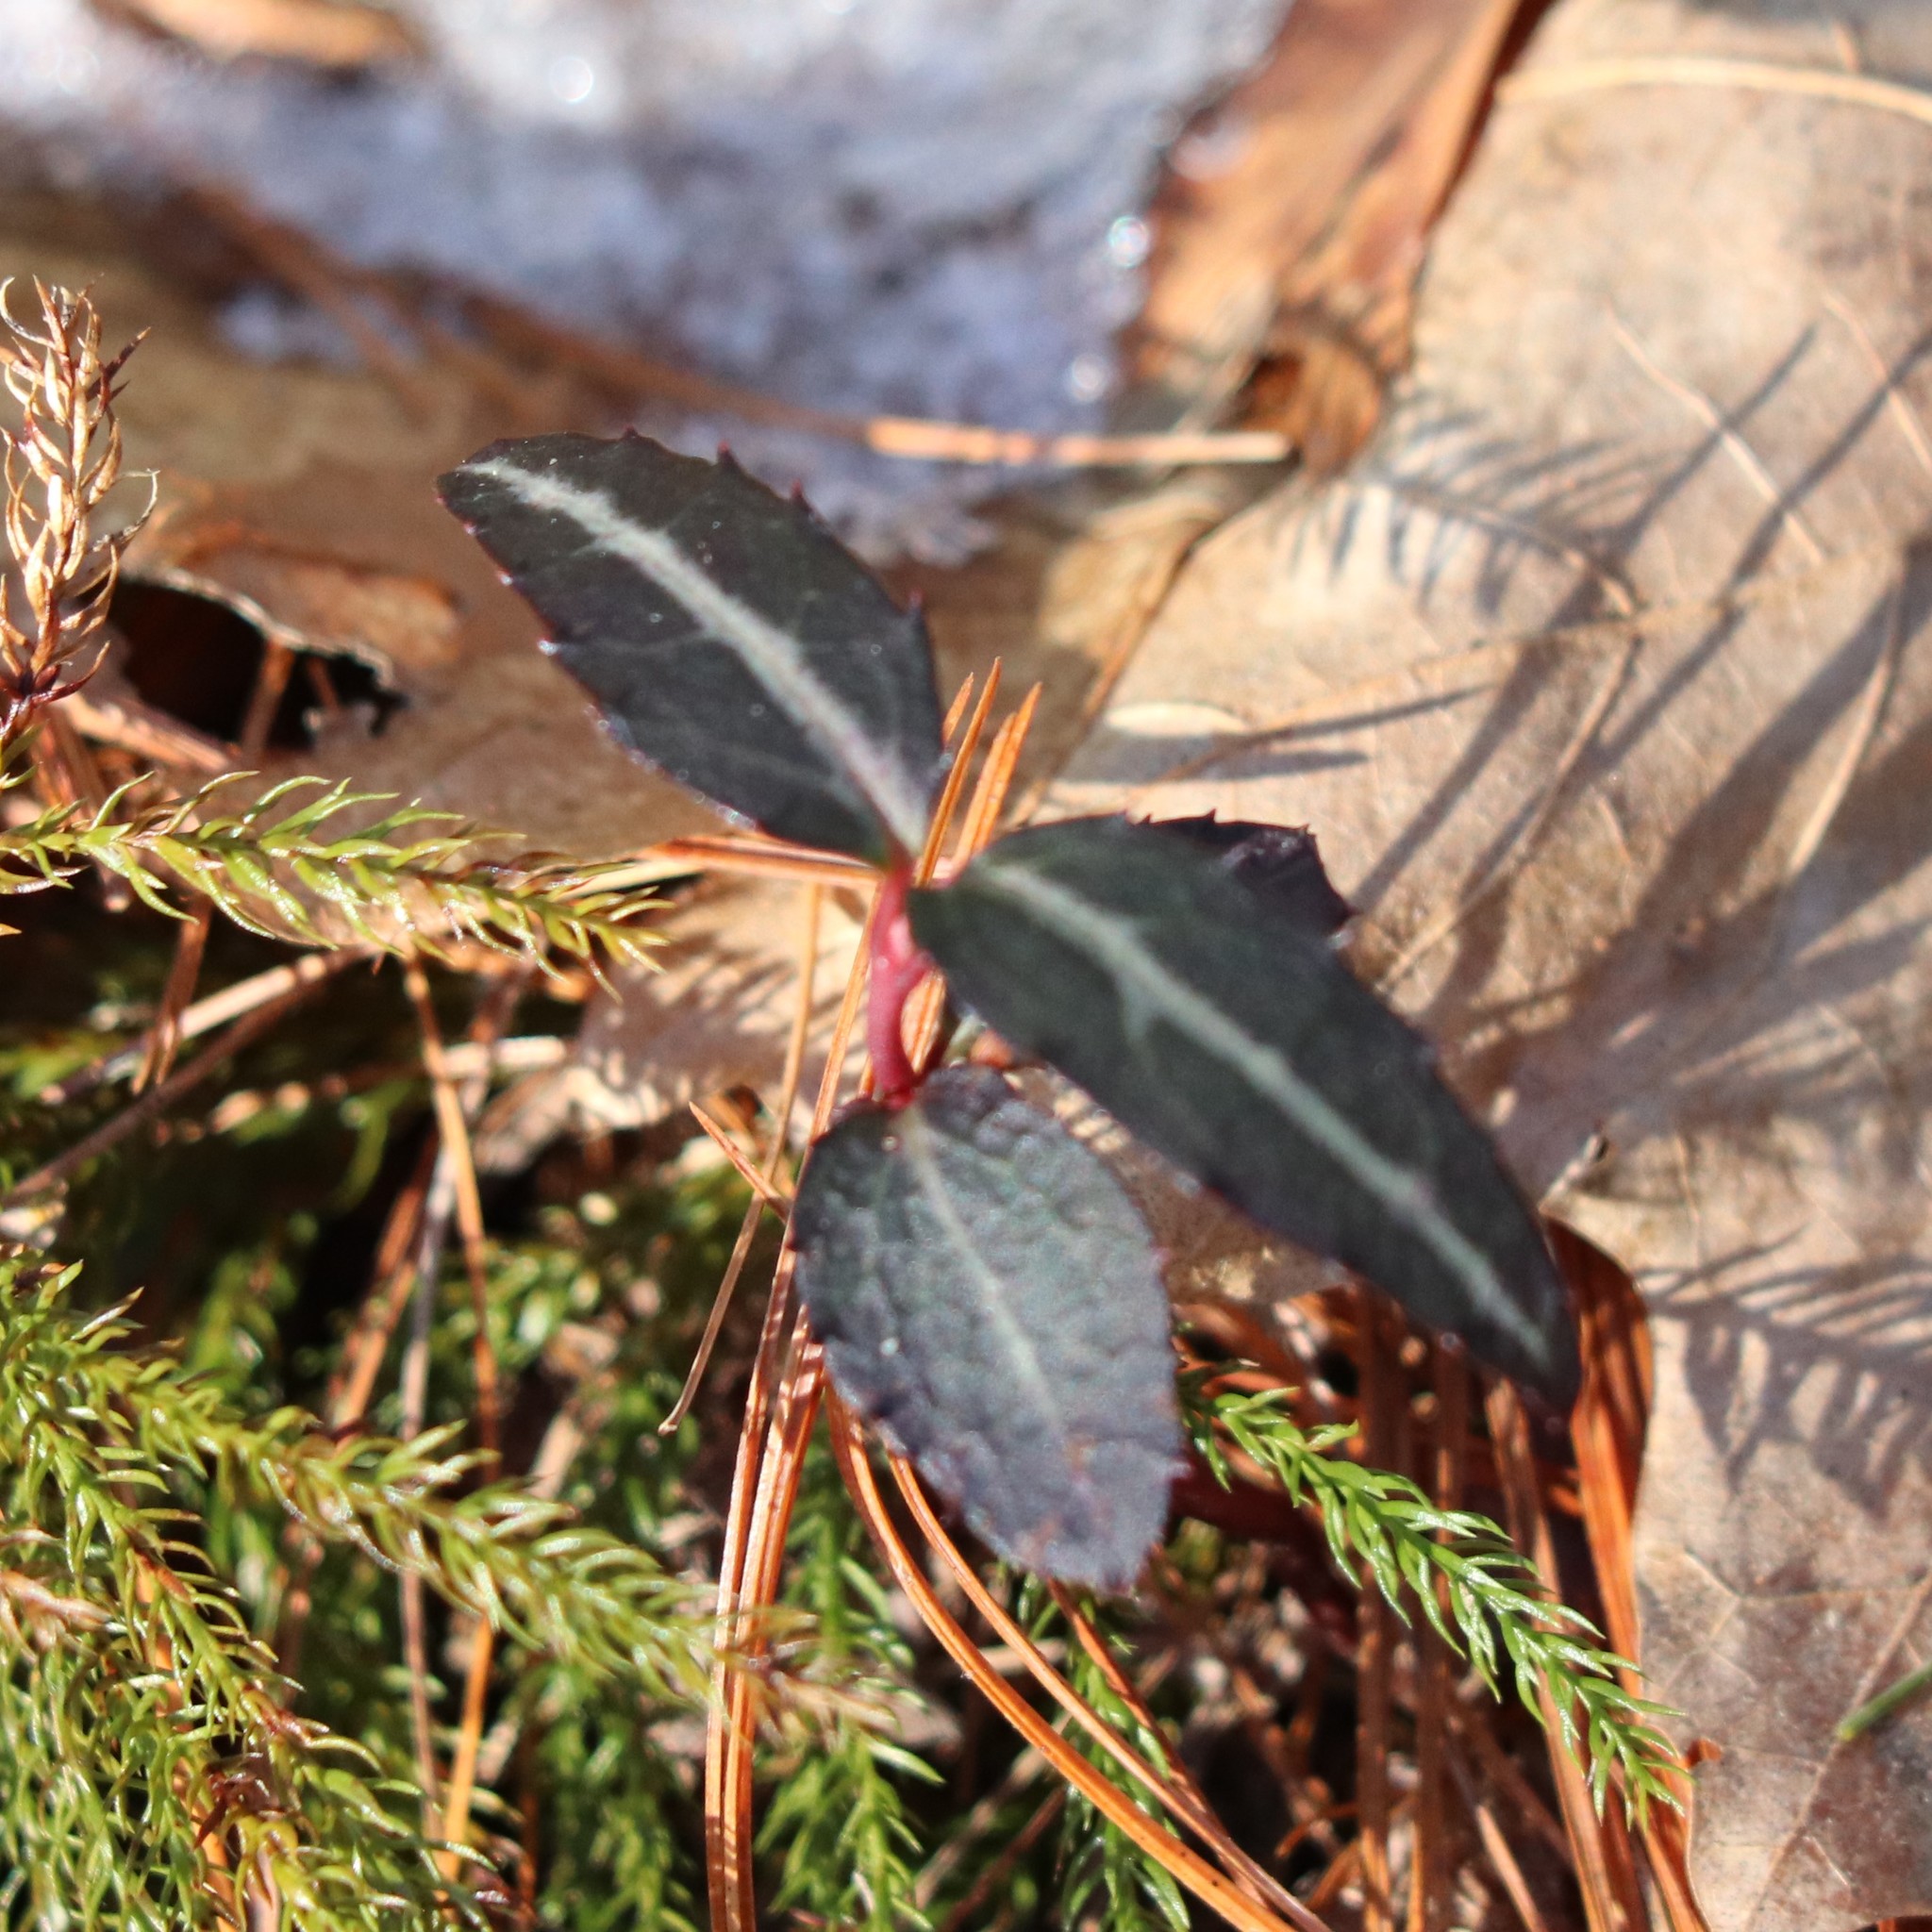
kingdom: Plantae
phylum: Tracheophyta
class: Magnoliopsida
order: Ericales
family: Ericaceae
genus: Chimaphila
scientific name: Chimaphila maculata
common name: Spotted pipsissewa
